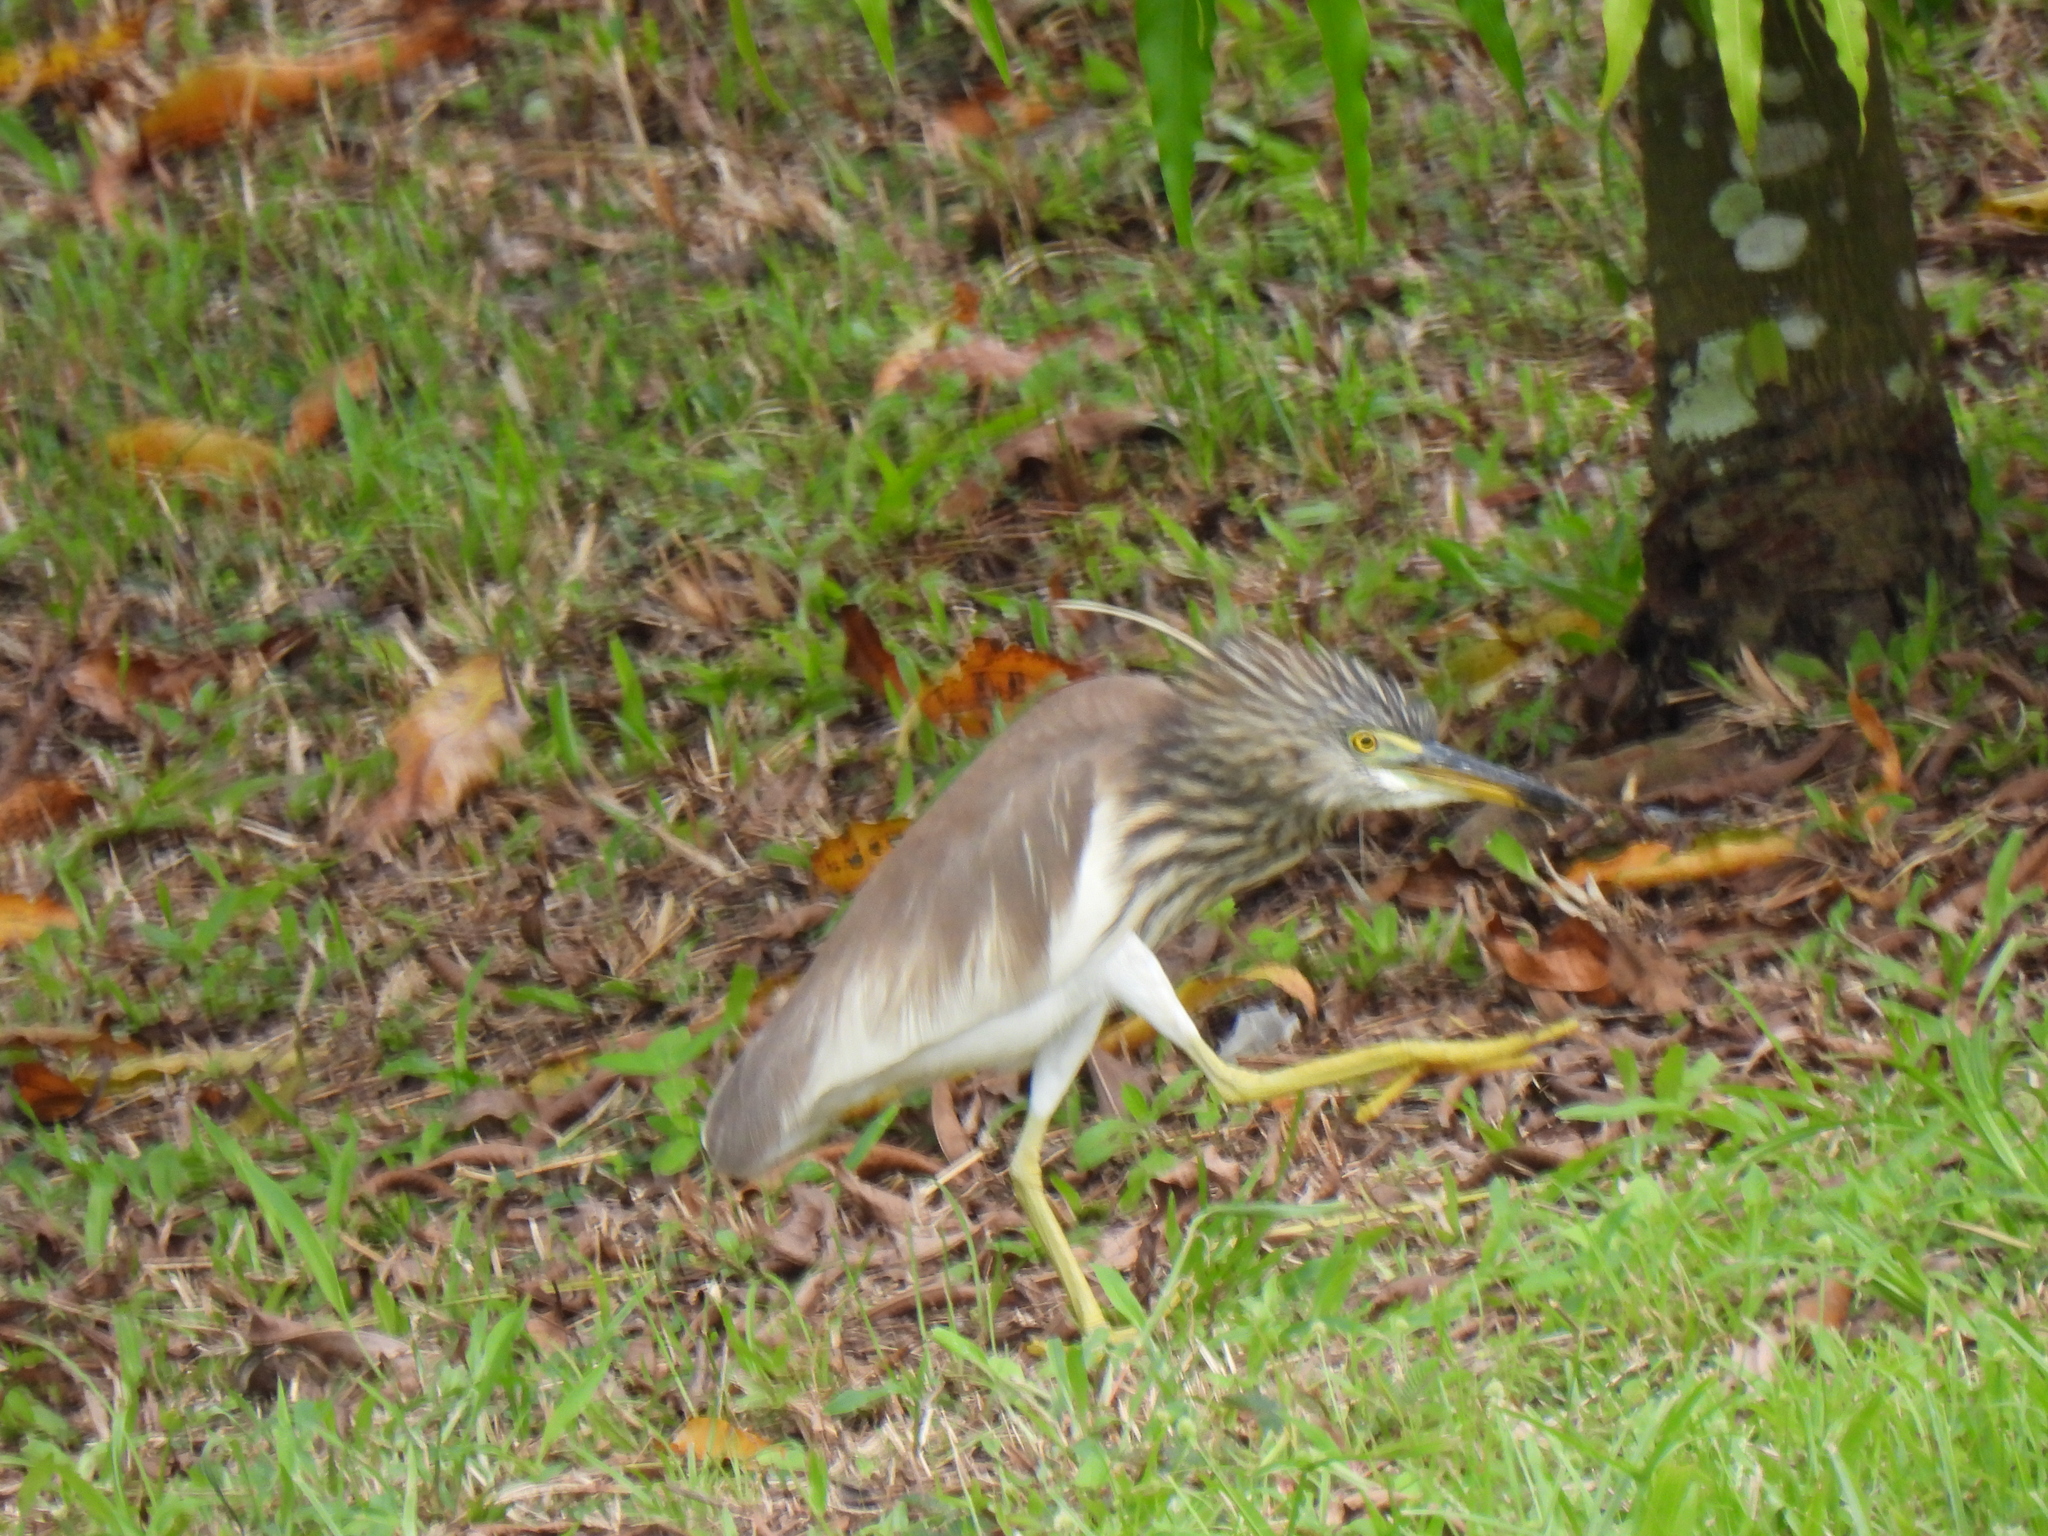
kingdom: Animalia
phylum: Chordata
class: Aves
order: Pelecaniformes
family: Ardeidae
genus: Ardeola
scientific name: Ardeola
